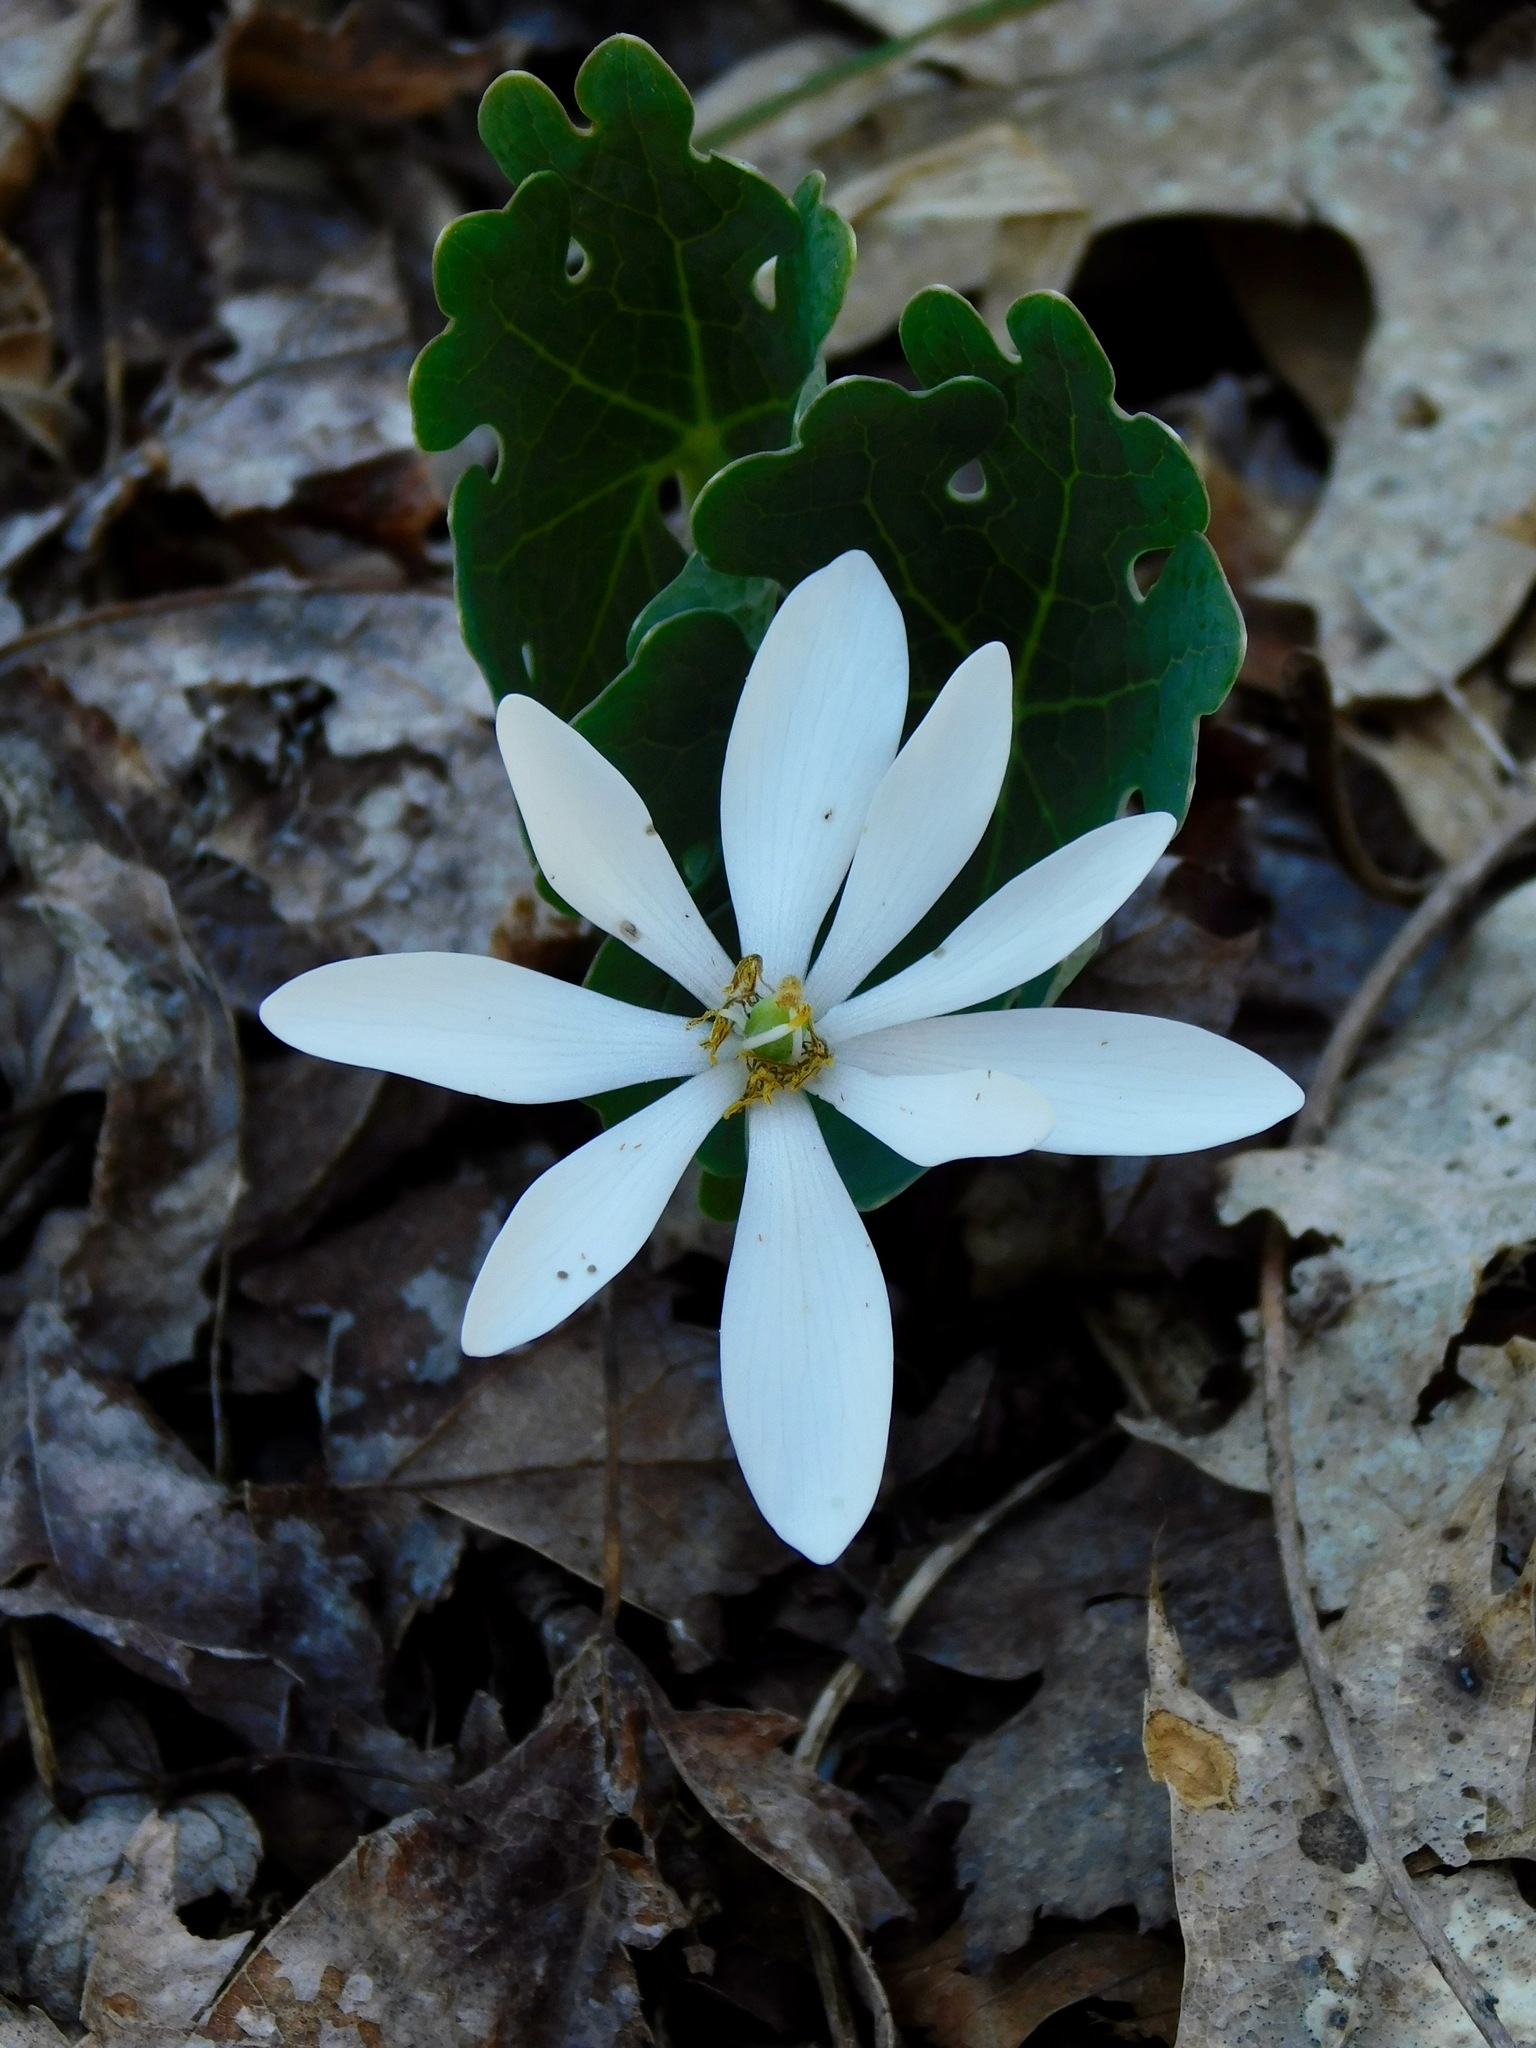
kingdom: Plantae
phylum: Tracheophyta
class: Magnoliopsida
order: Ranunculales
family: Papaveraceae
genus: Sanguinaria
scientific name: Sanguinaria canadensis
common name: Bloodroot
